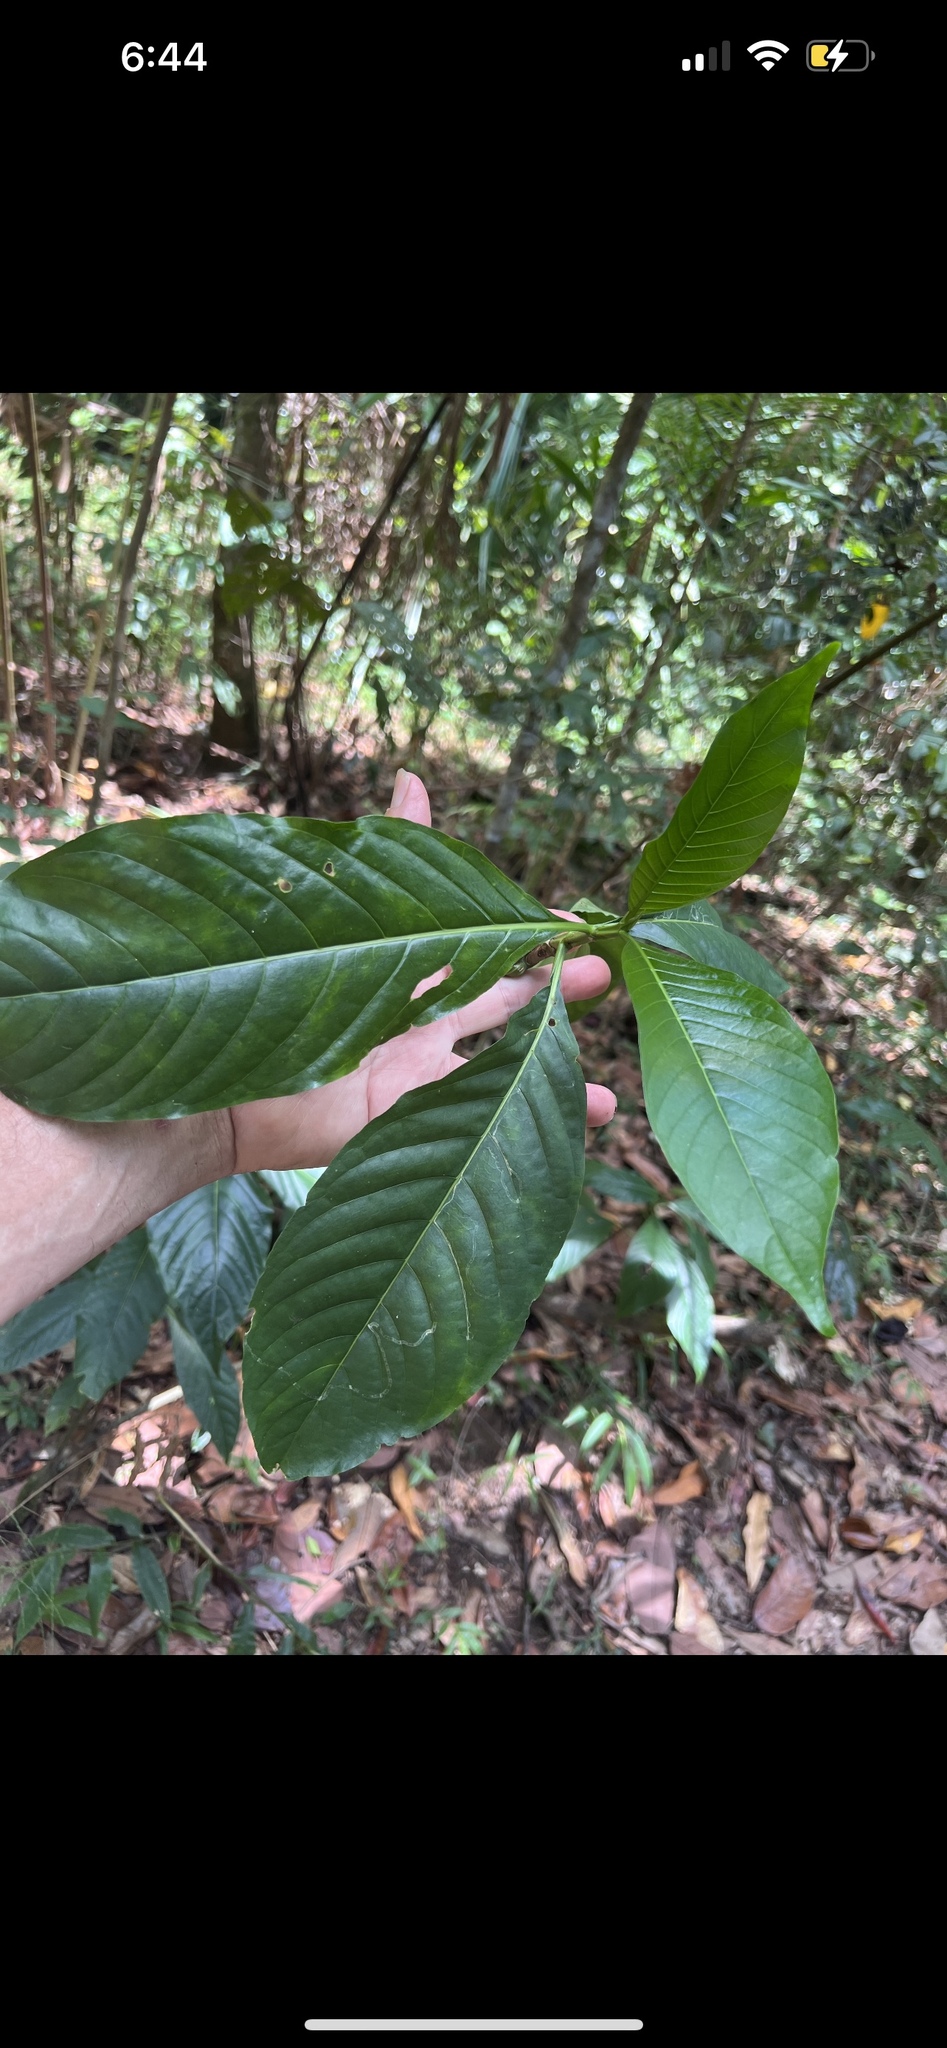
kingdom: Plantae
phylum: Tracheophyta
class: Magnoliopsida
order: Malpighiales
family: Passifloraceae
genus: Passiflora
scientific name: Passiflora edulis
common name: Purple granadilla
